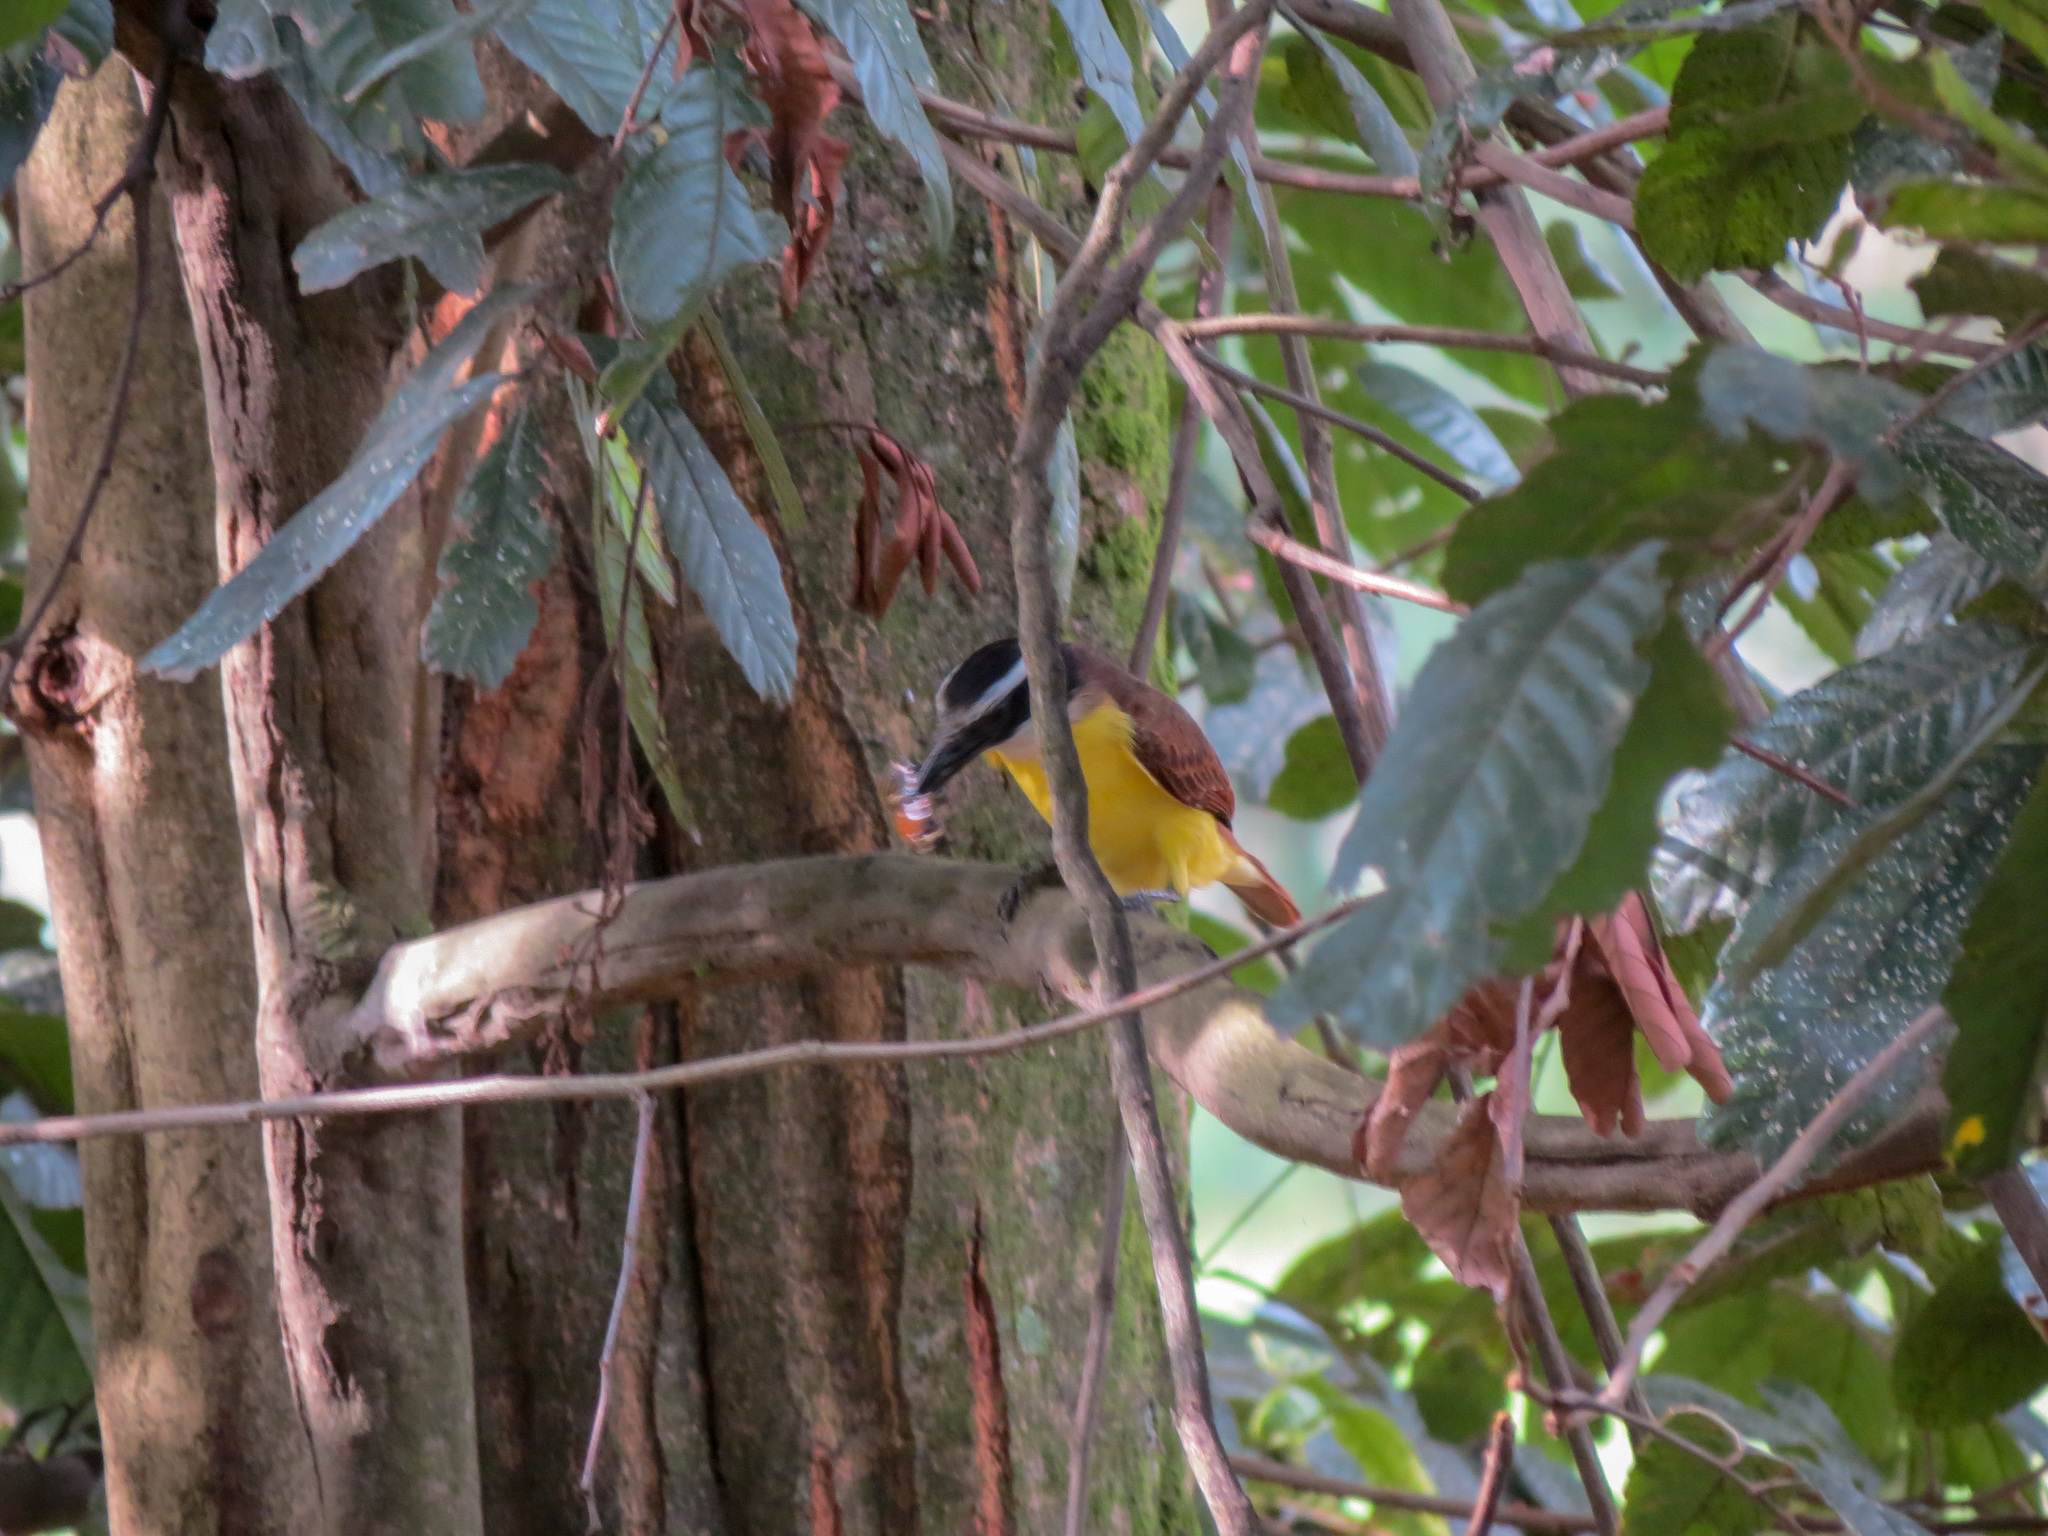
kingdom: Animalia
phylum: Chordata
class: Aves
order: Passeriformes
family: Tyrannidae
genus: Pitangus
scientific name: Pitangus sulphuratus
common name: Great kiskadee
